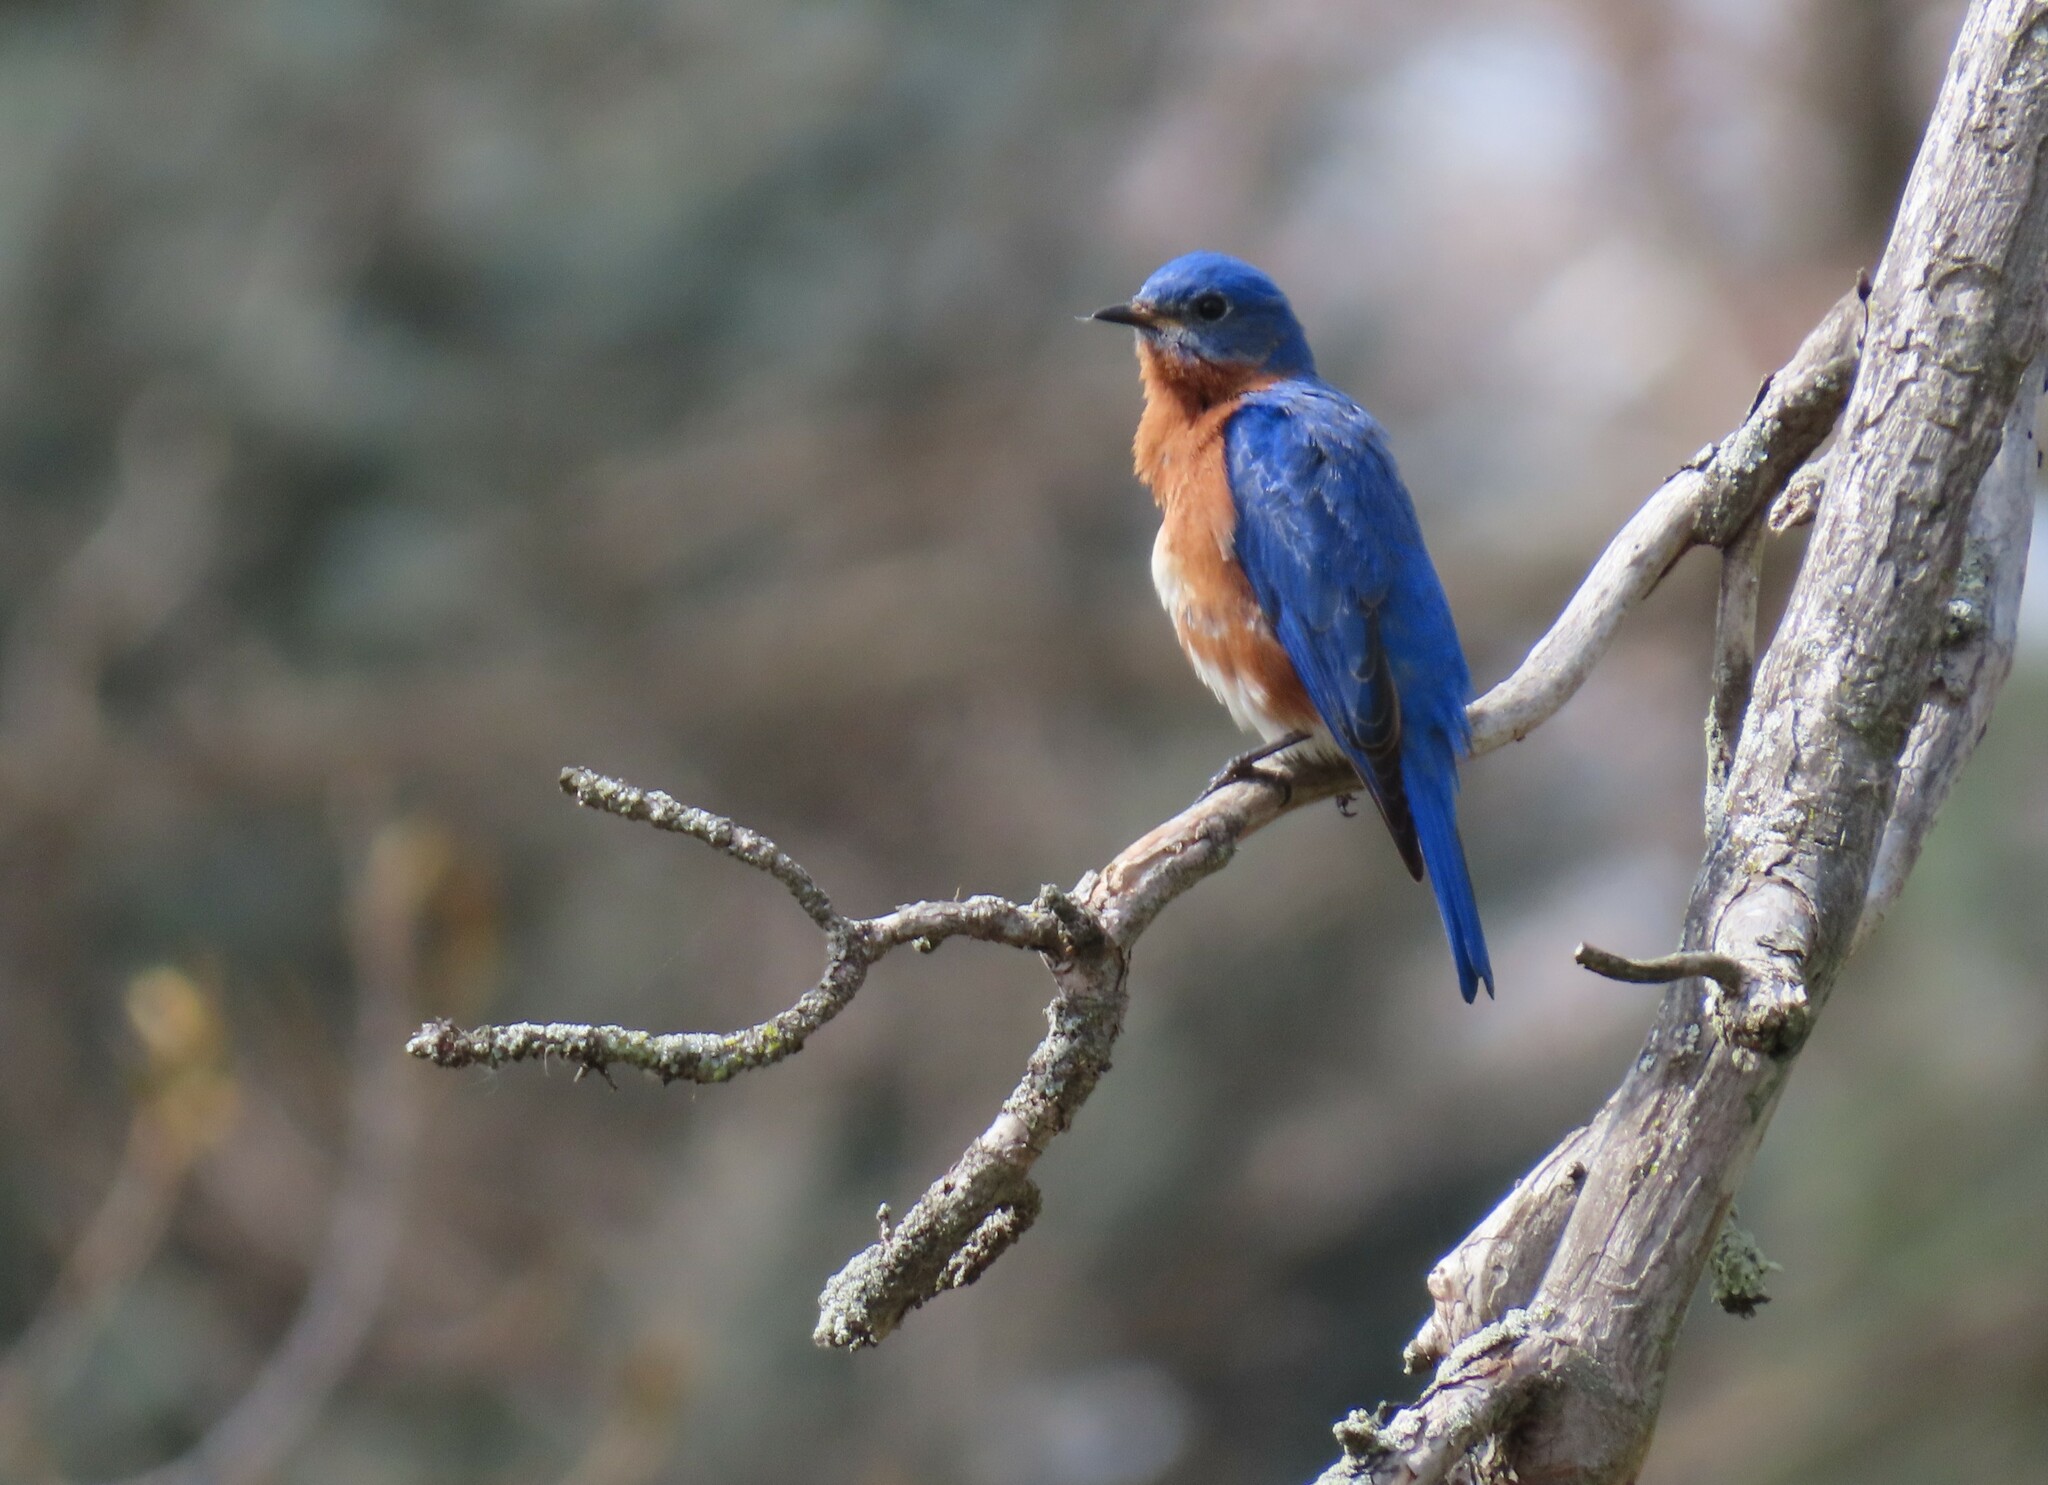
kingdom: Animalia
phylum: Chordata
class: Aves
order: Passeriformes
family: Turdidae
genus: Sialia
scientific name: Sialia sialis
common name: Eastern bluebird
